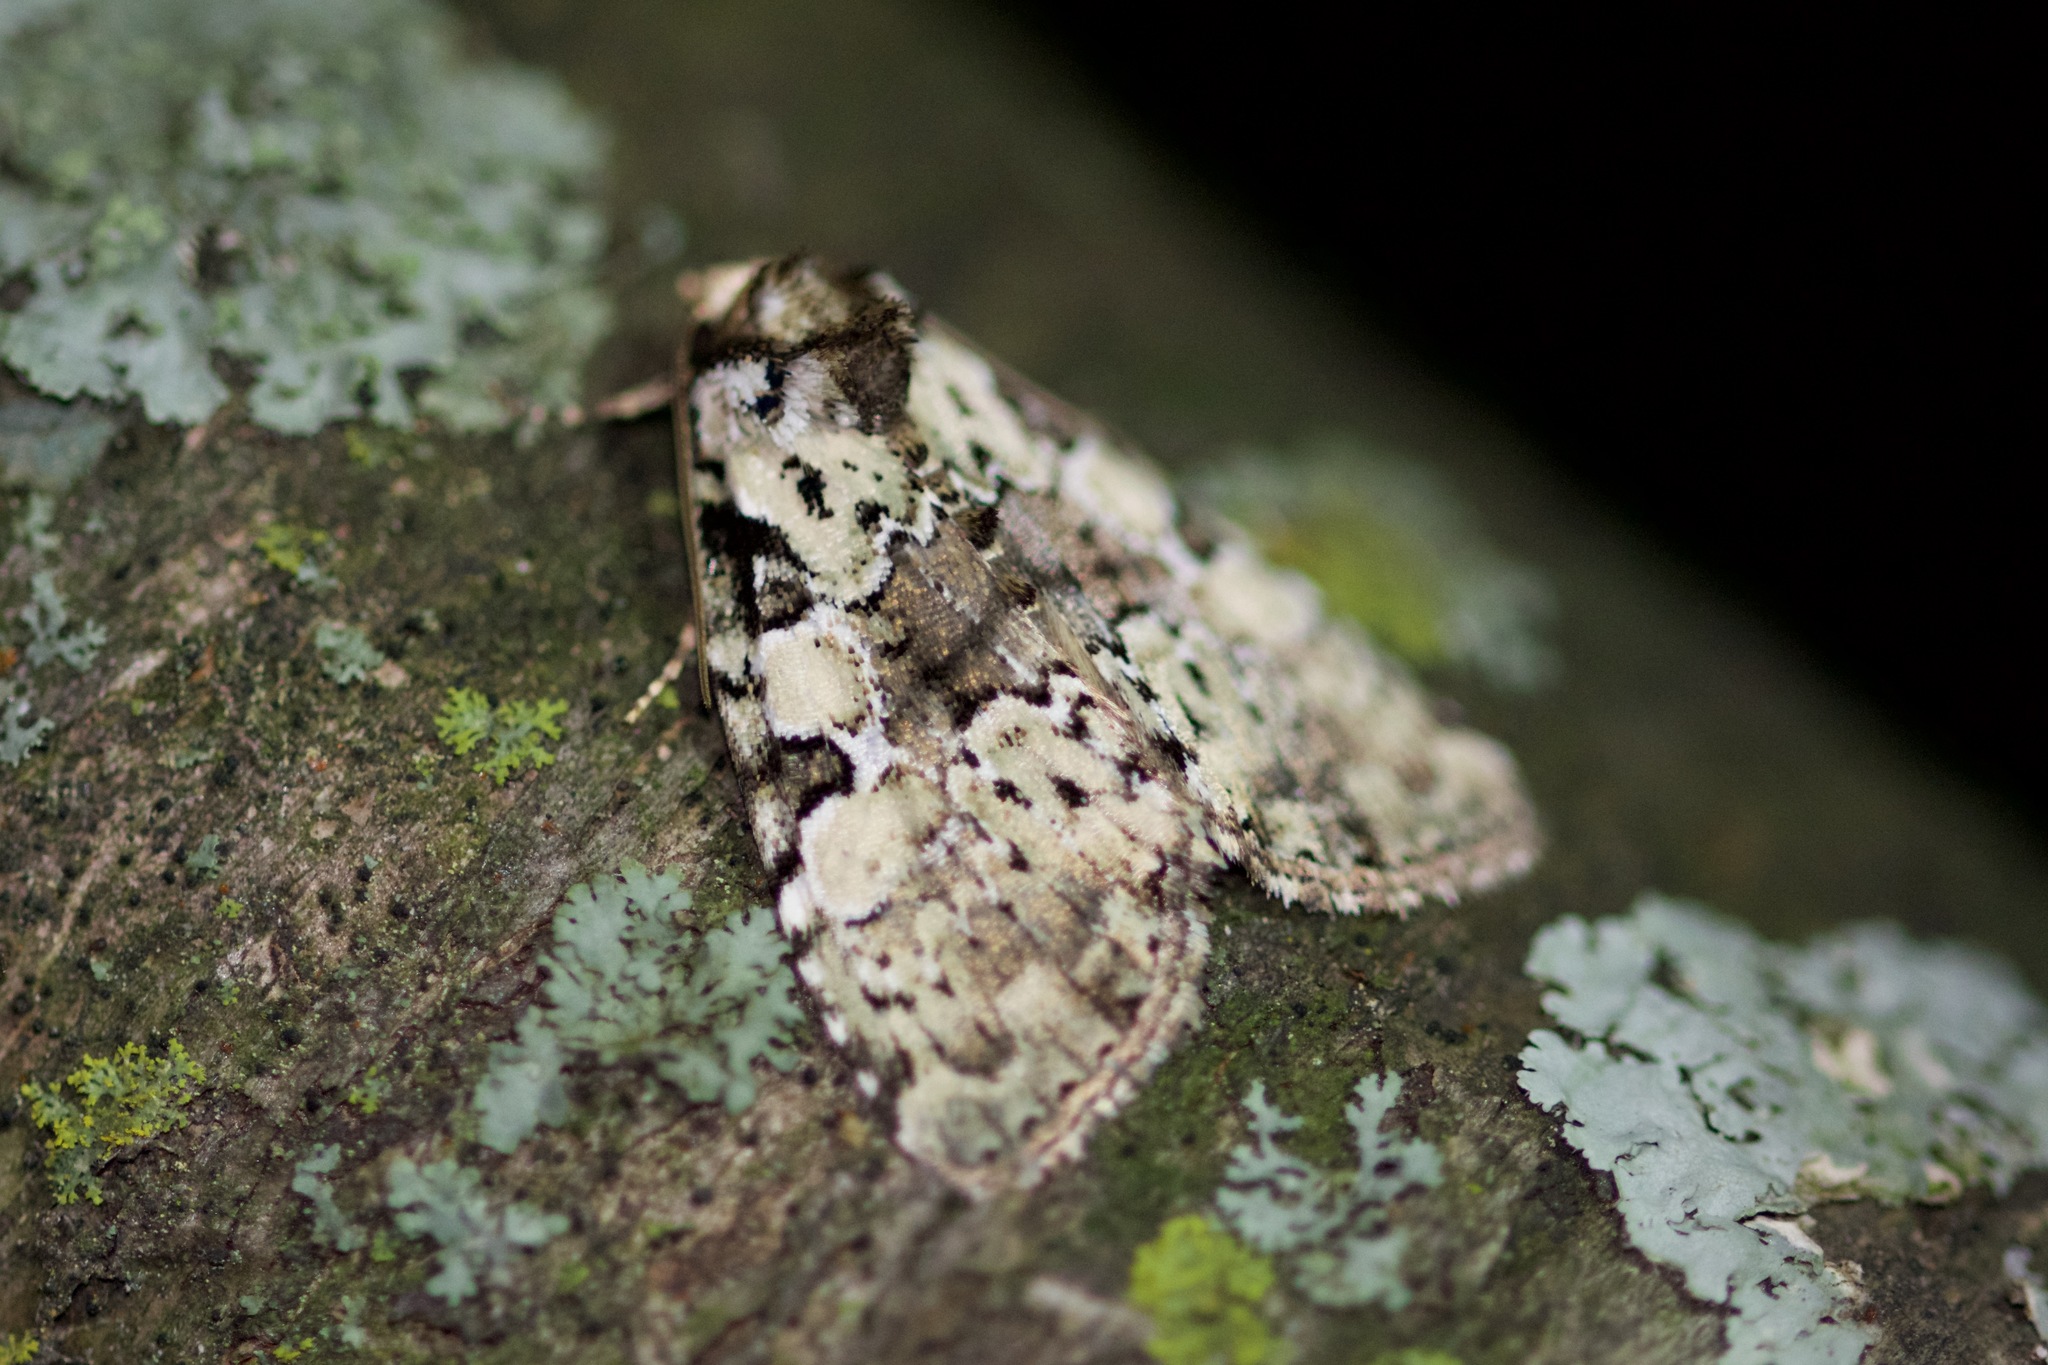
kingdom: Animalia
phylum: Arthropoda
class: Insecta
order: Lepidoptera
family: Noctuidae
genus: Leuconycta
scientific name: Leuconycta lepidula
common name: Marbled-green leuconycta moth
